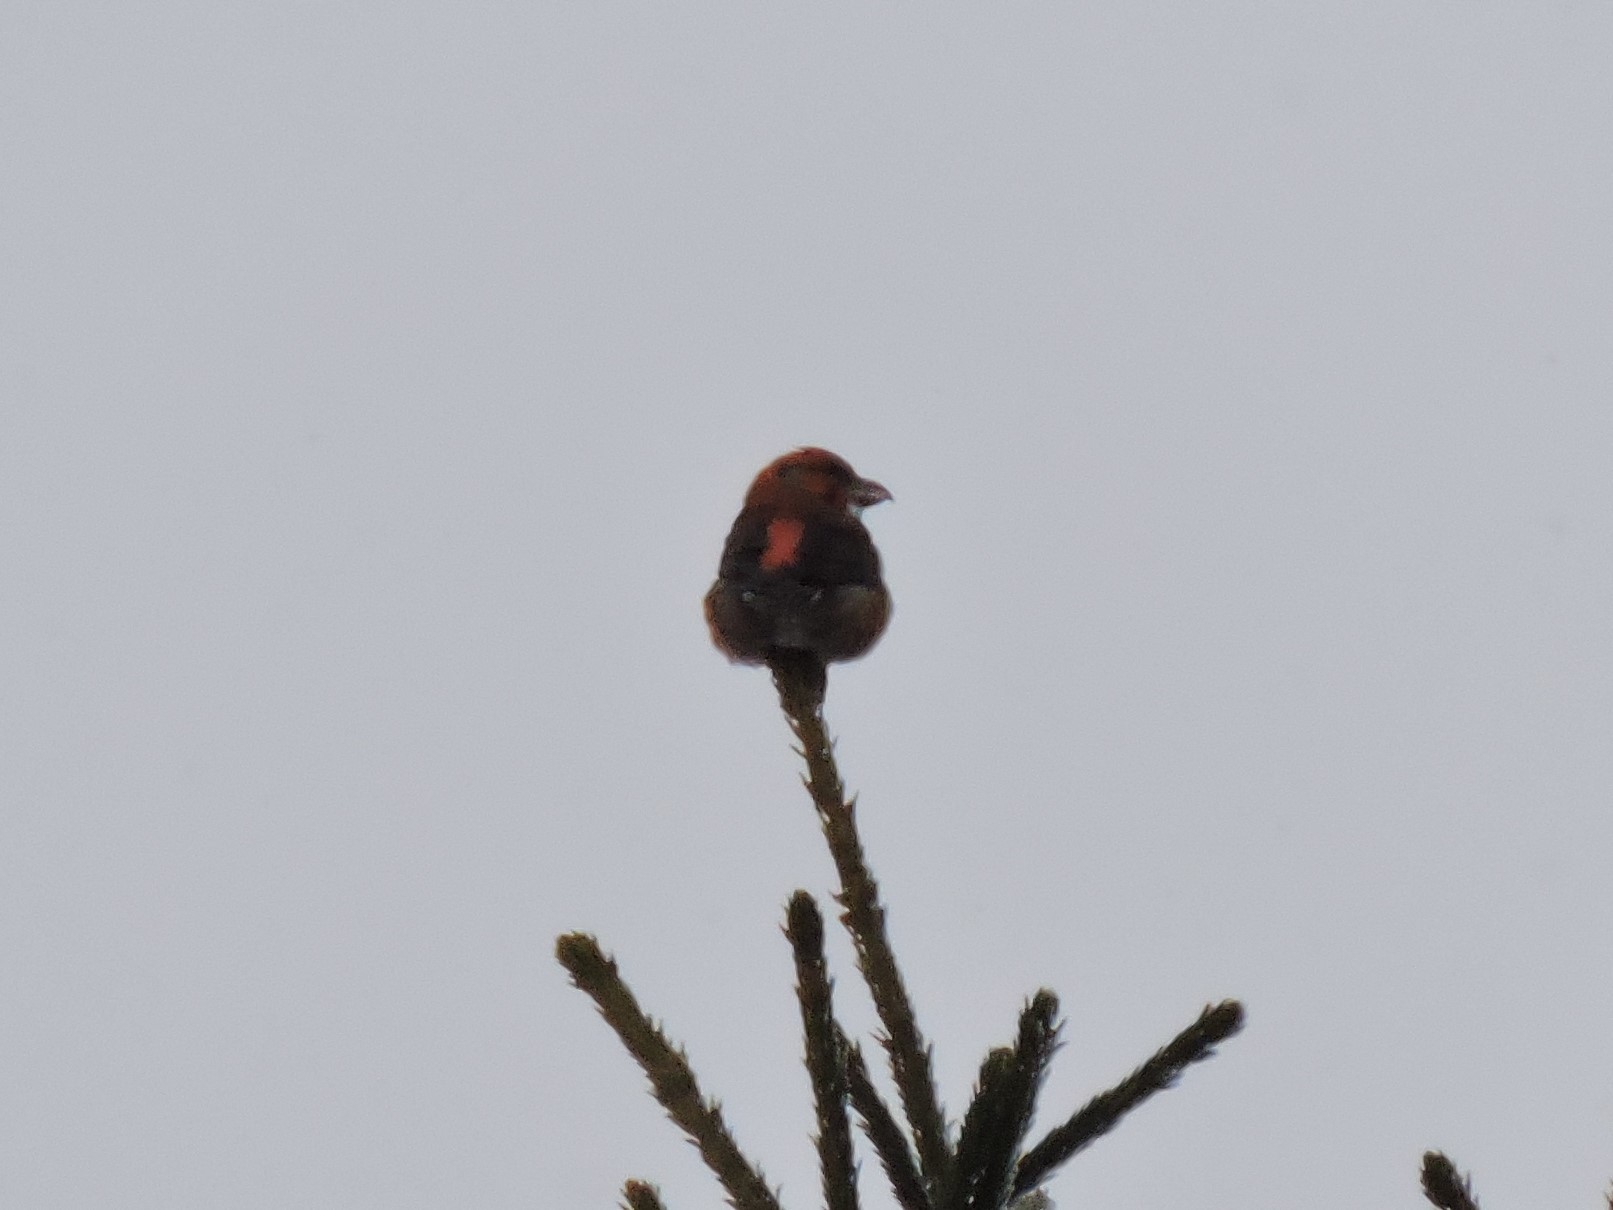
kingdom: Animalia
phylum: Chordata
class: Aves
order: Passeriformes
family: Fringillidae
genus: Loxia
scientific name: Loxia curvirostra
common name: Red crossbill
